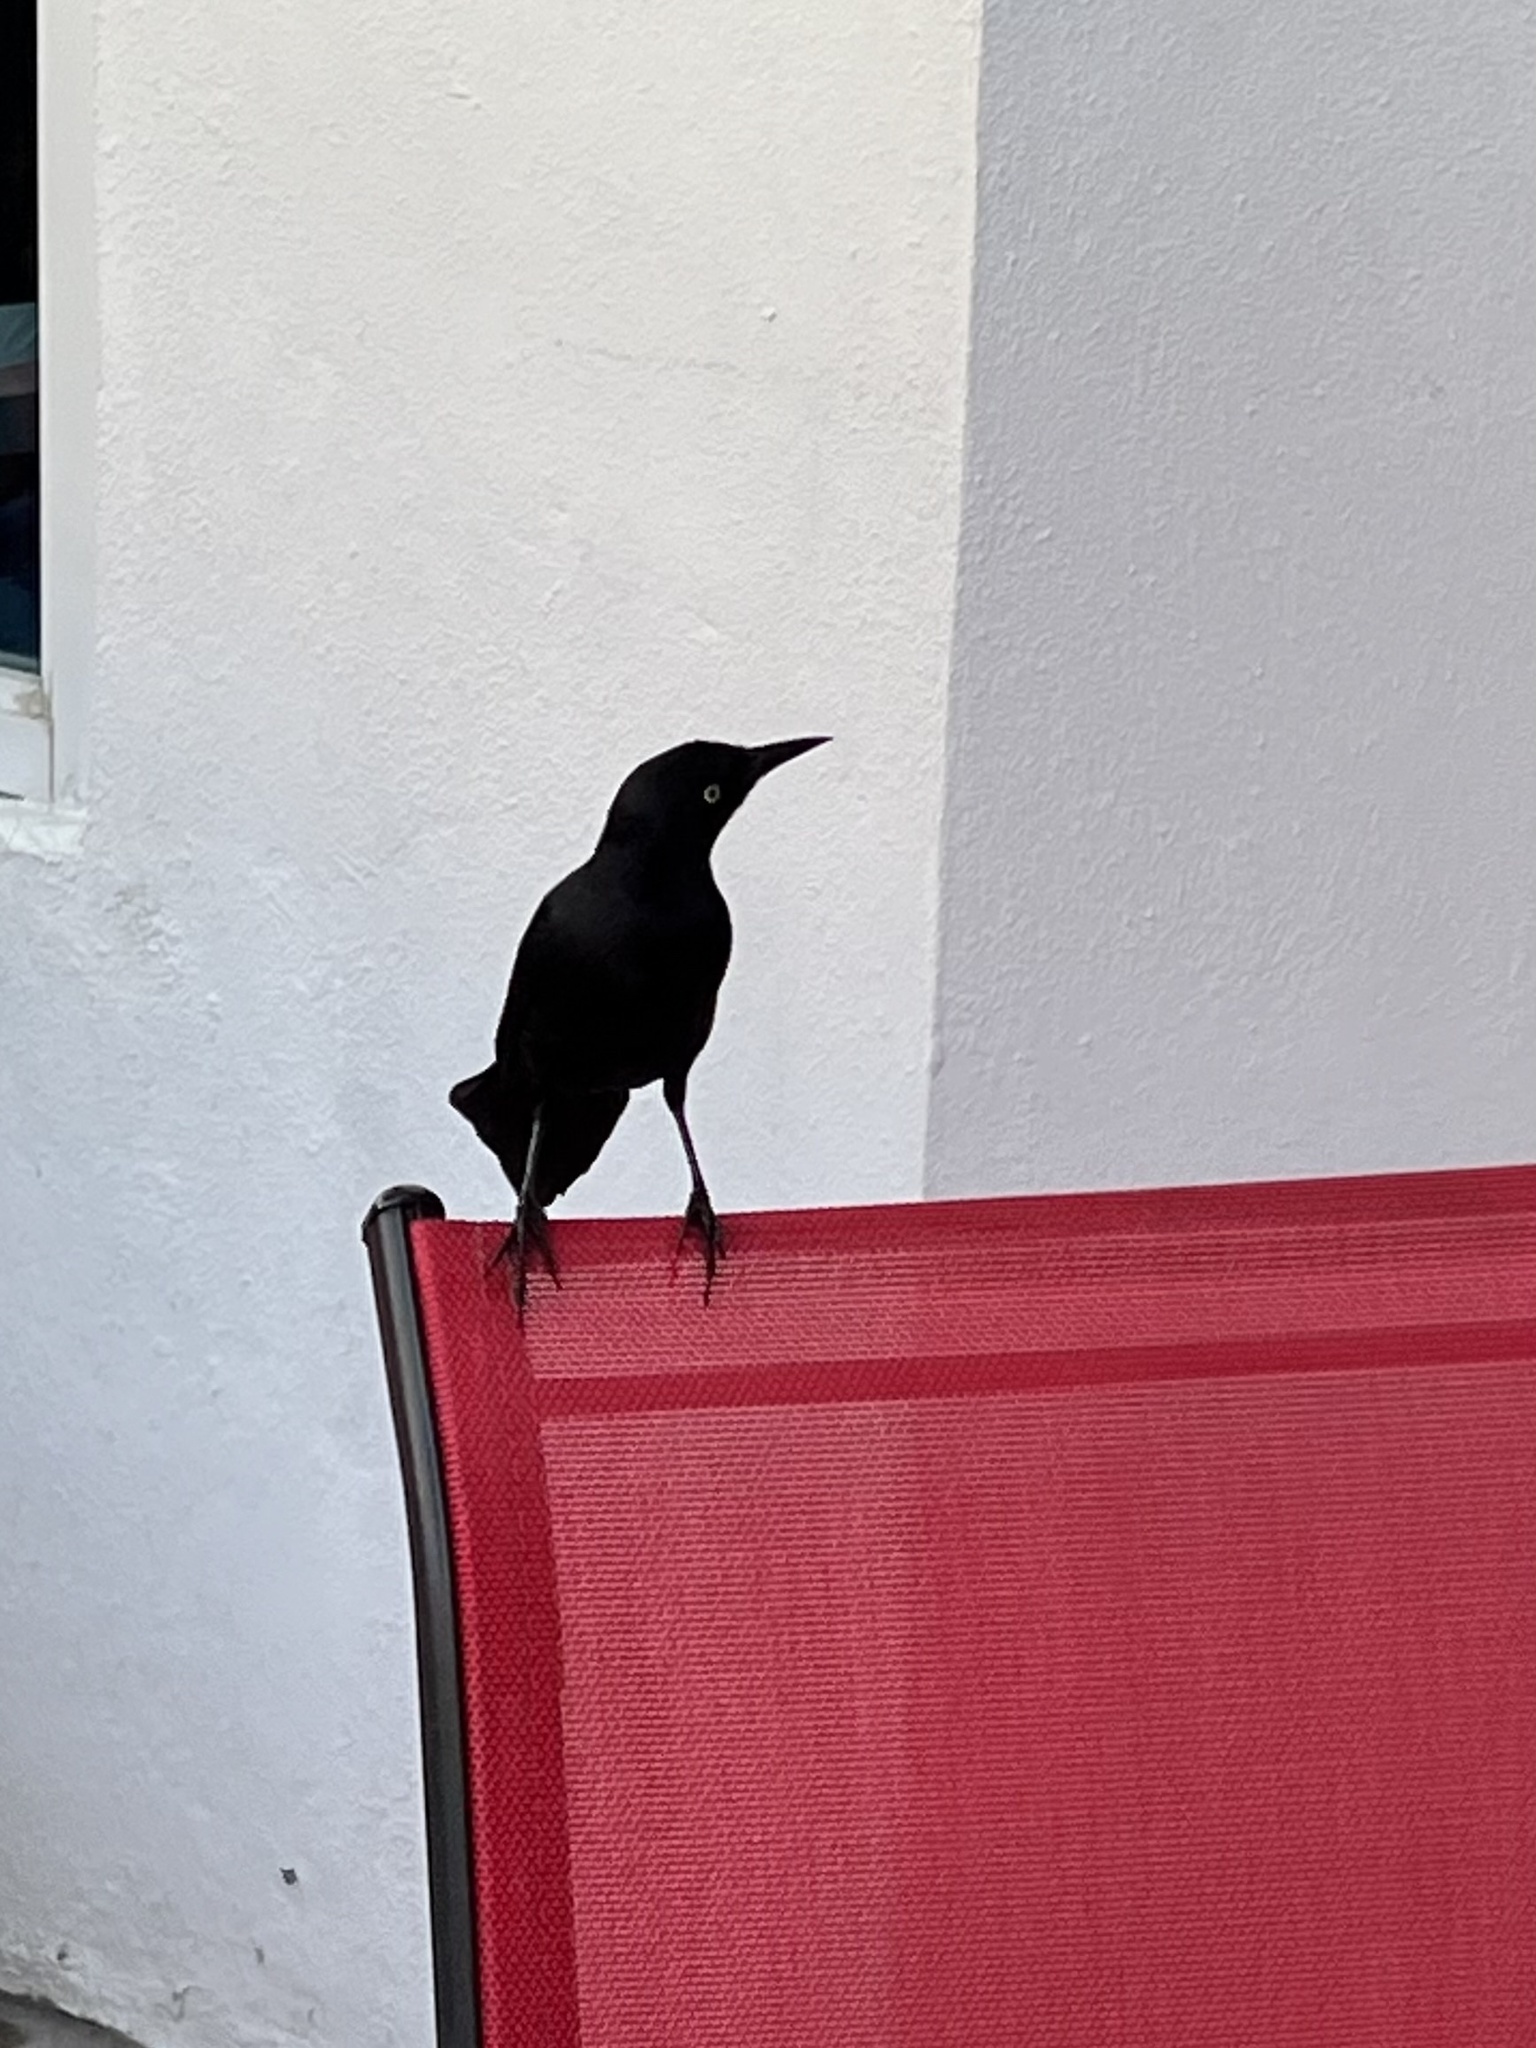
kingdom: Animalia
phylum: Chordata
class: Aves
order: Passeriformes
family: Icteridae
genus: Quiscalus
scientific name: Quiscalus niger
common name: Greater antillean grackle
